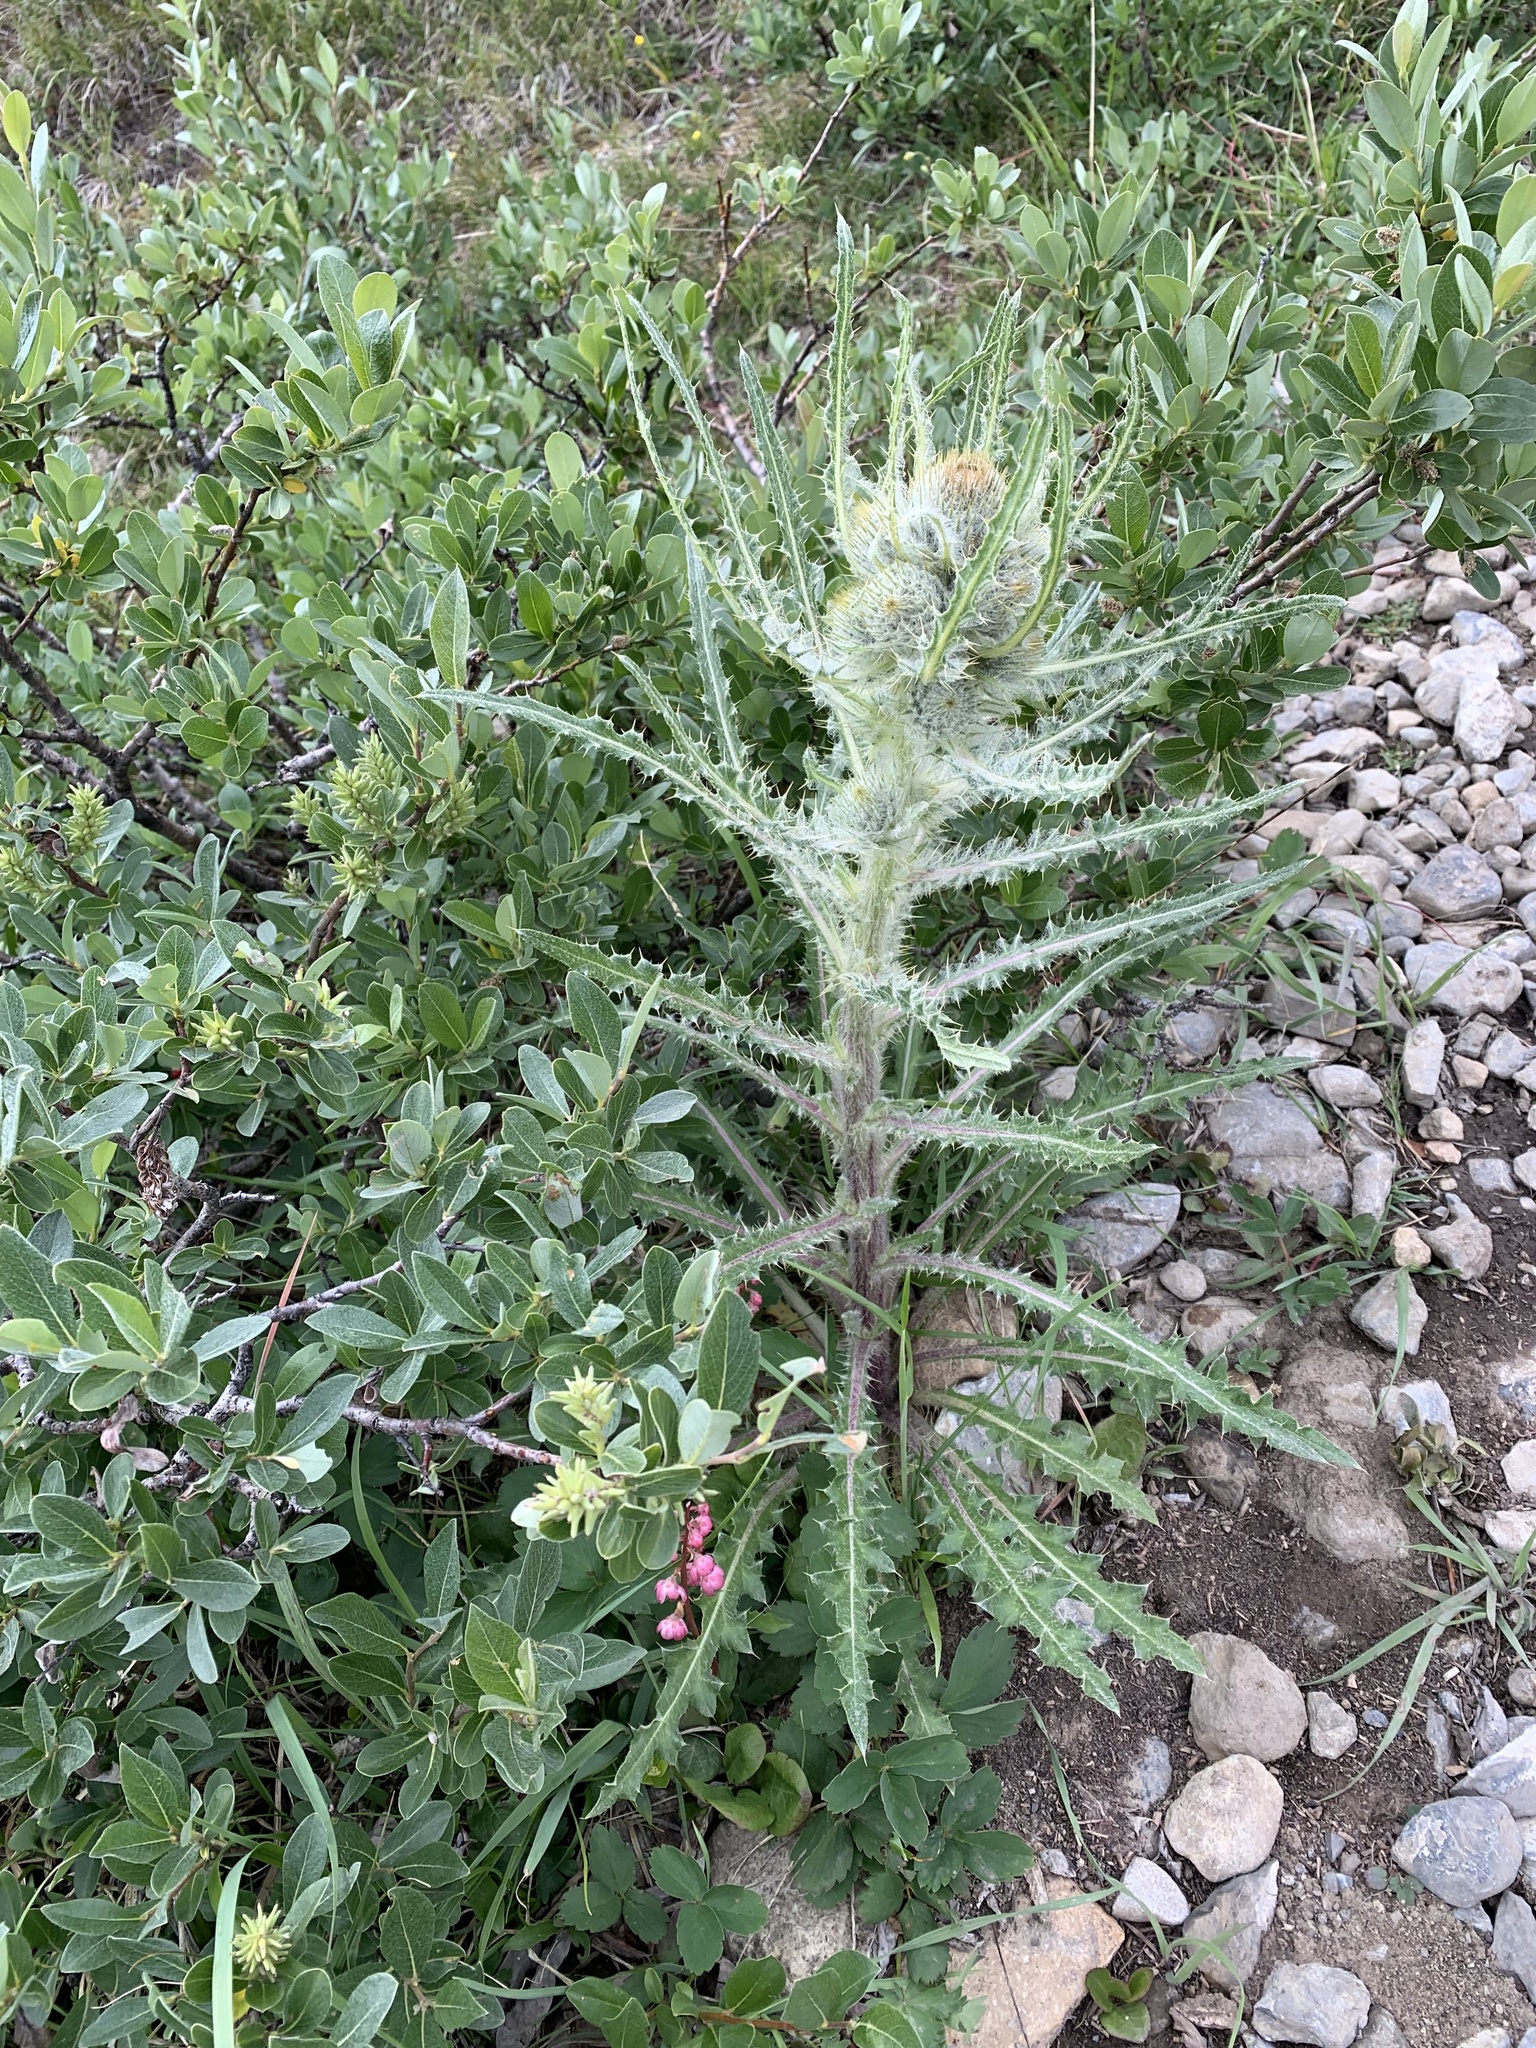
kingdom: Plantae
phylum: Tracheophyta
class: Magnoliopsida
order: Asterales
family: Asteraceae
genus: Cirsium
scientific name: Cirsium hookerianum
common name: Hooker's thistle
